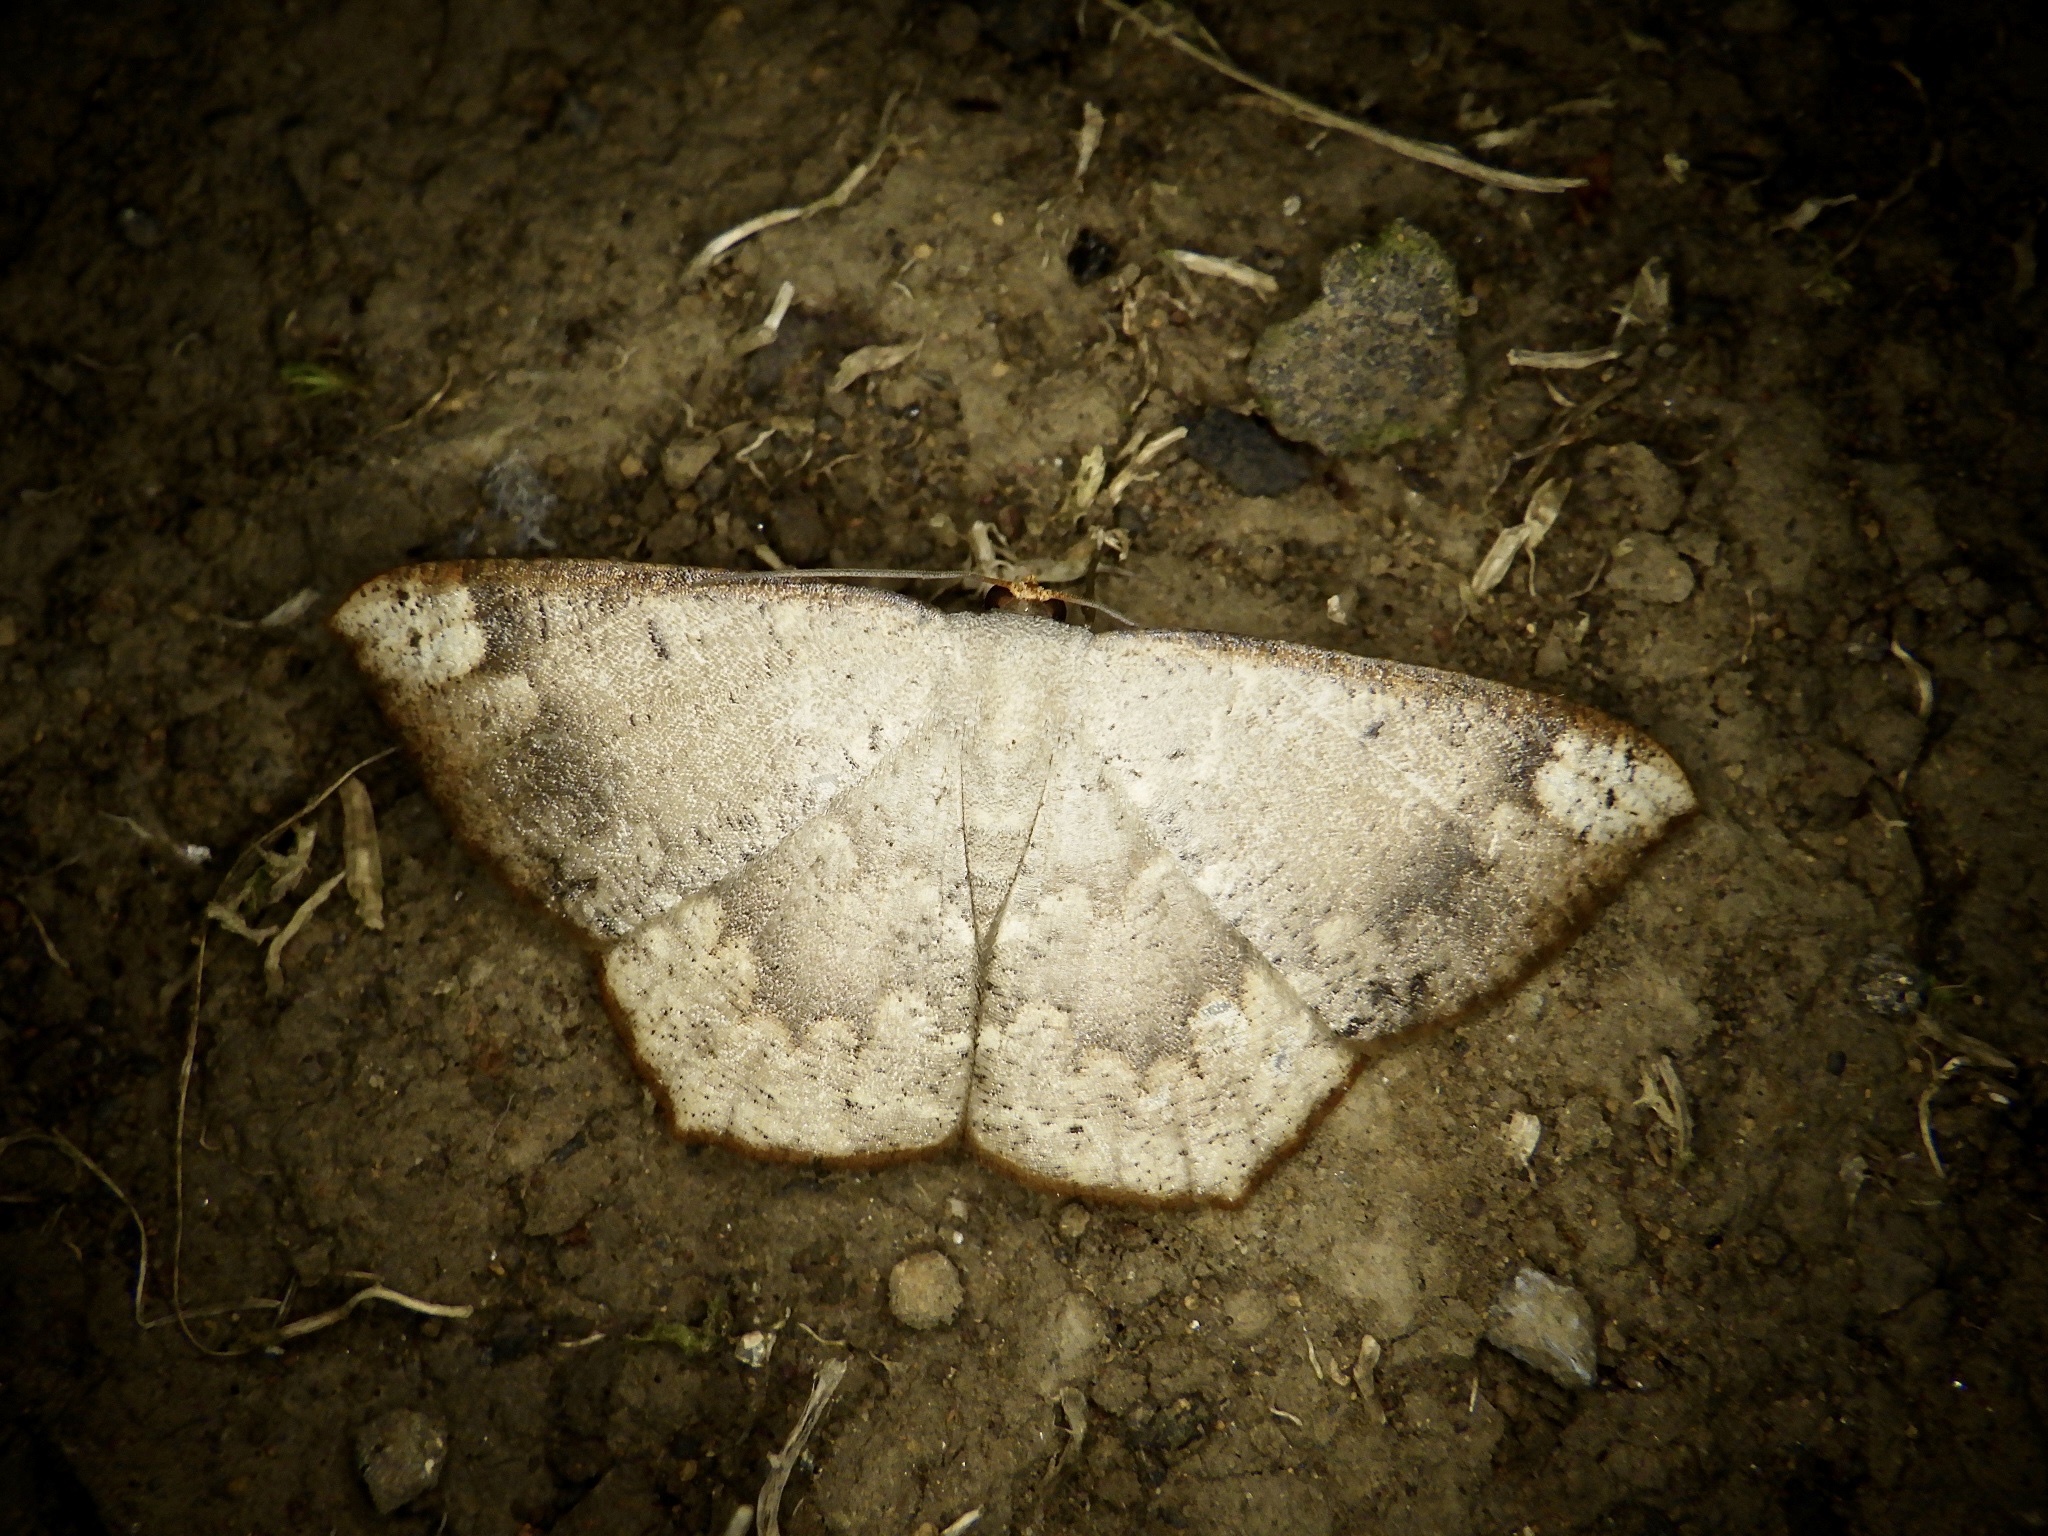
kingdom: Animalia
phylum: Arthropoda
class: Insecta
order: Lepidoptera
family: Geometridae
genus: Peratostega
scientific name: Peratostega deletaria
